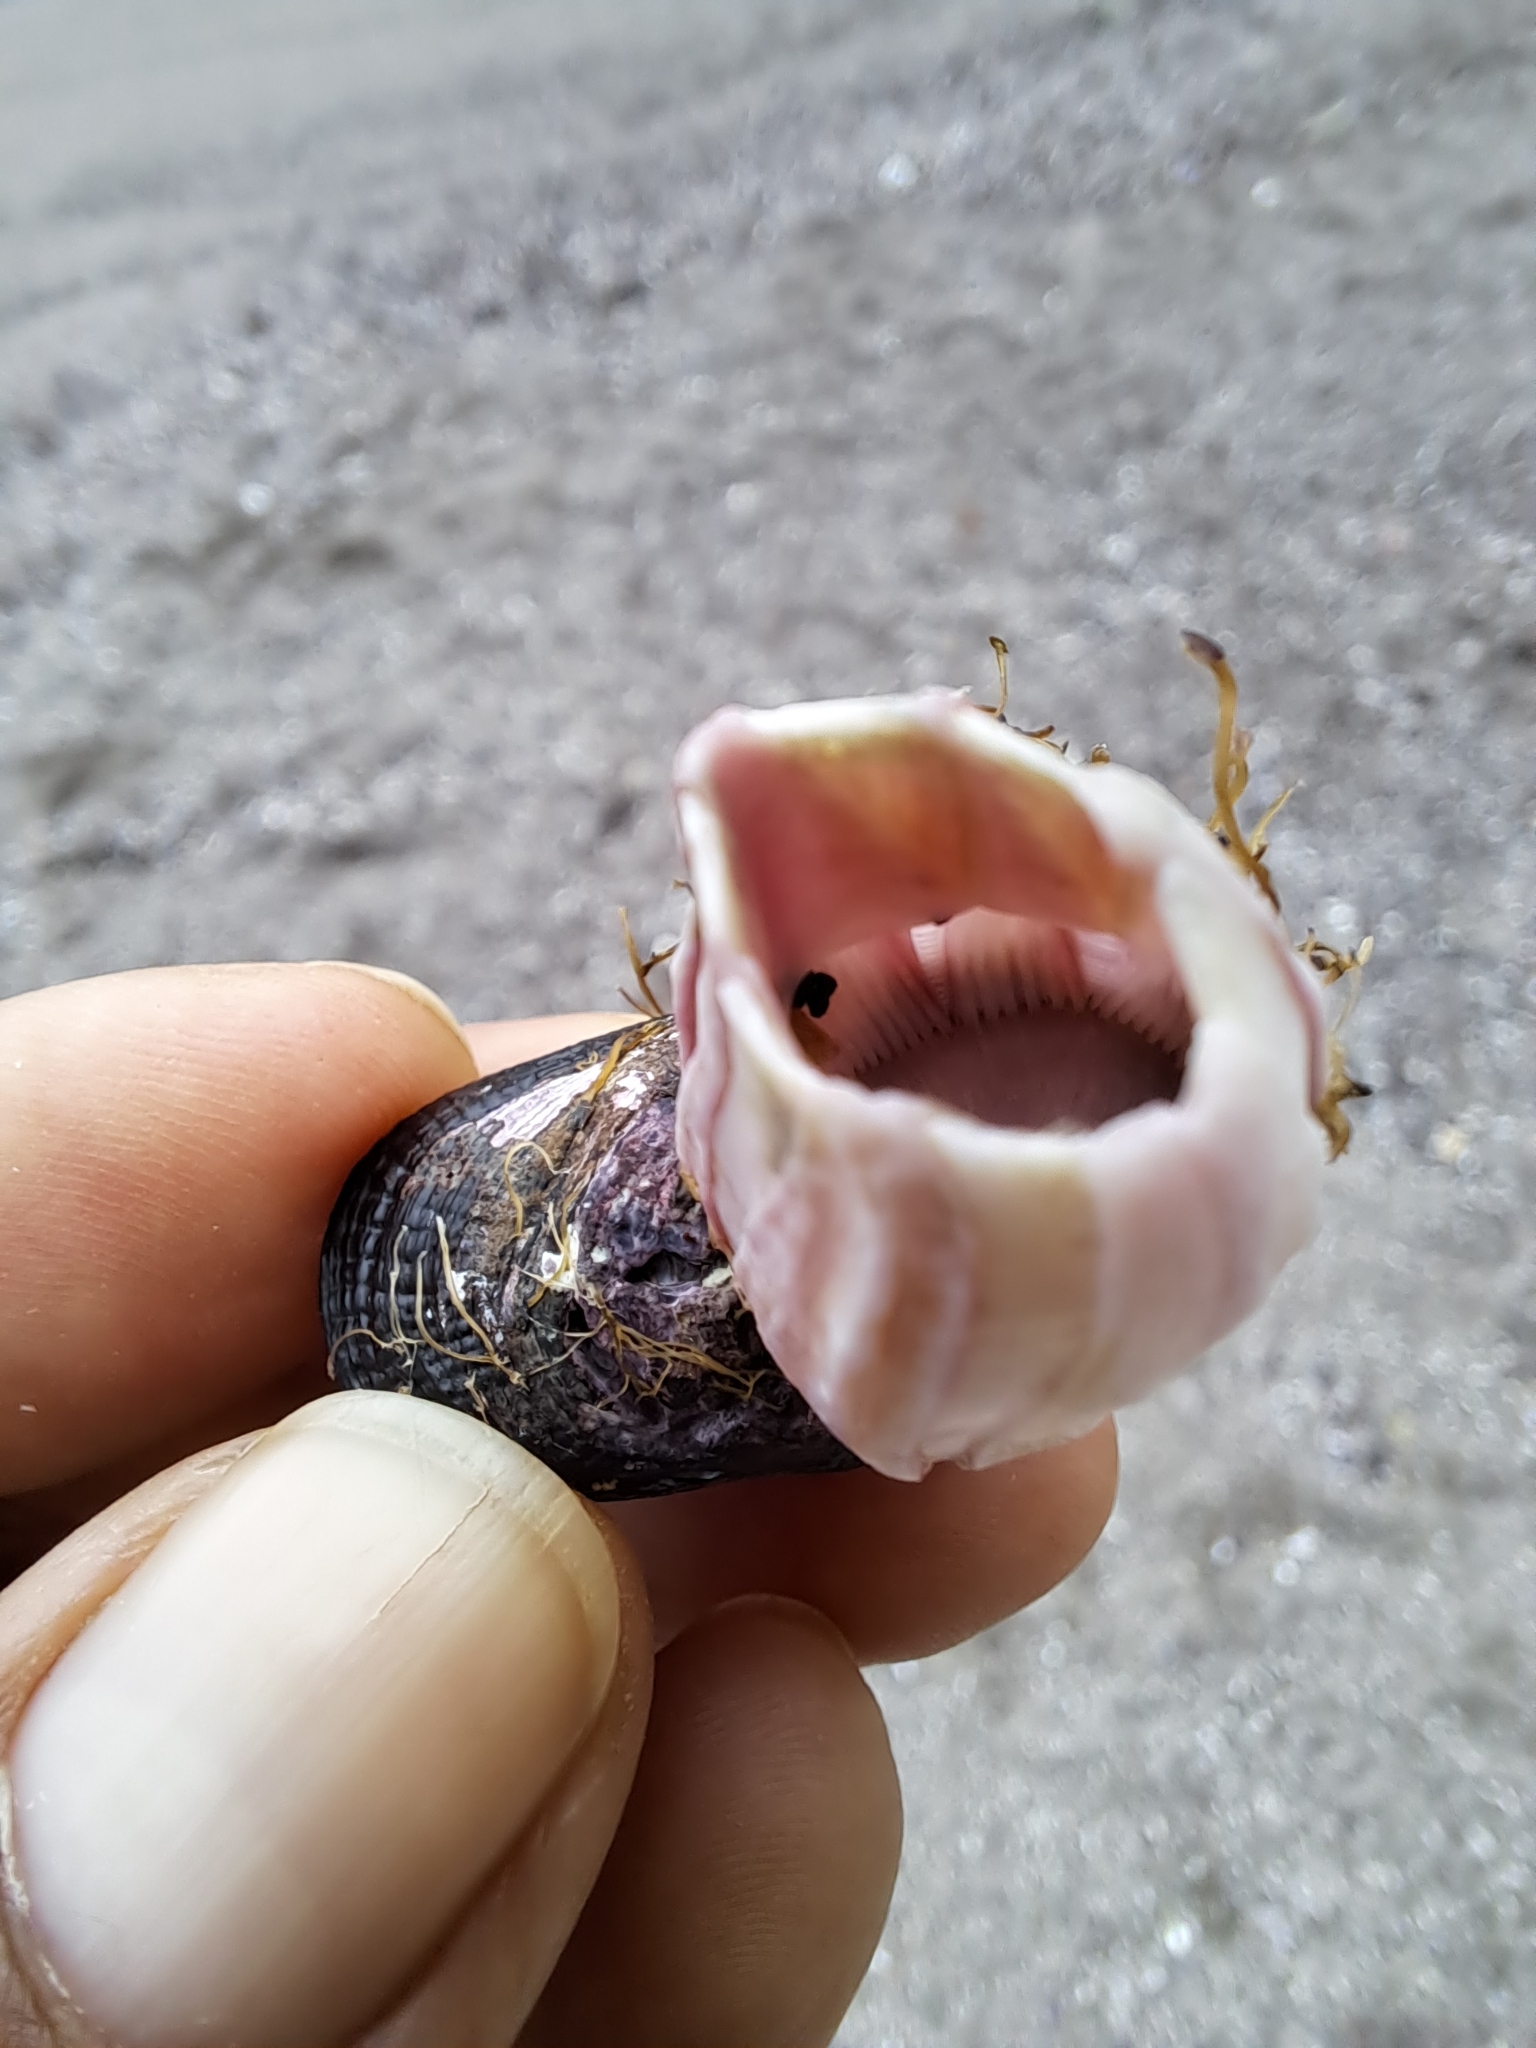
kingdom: Animalia
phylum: Arthropoda
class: Maxillopoda
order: Sessilia
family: Balanidae
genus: Austromegabalanus
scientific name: Austromegabalanus psittacus
